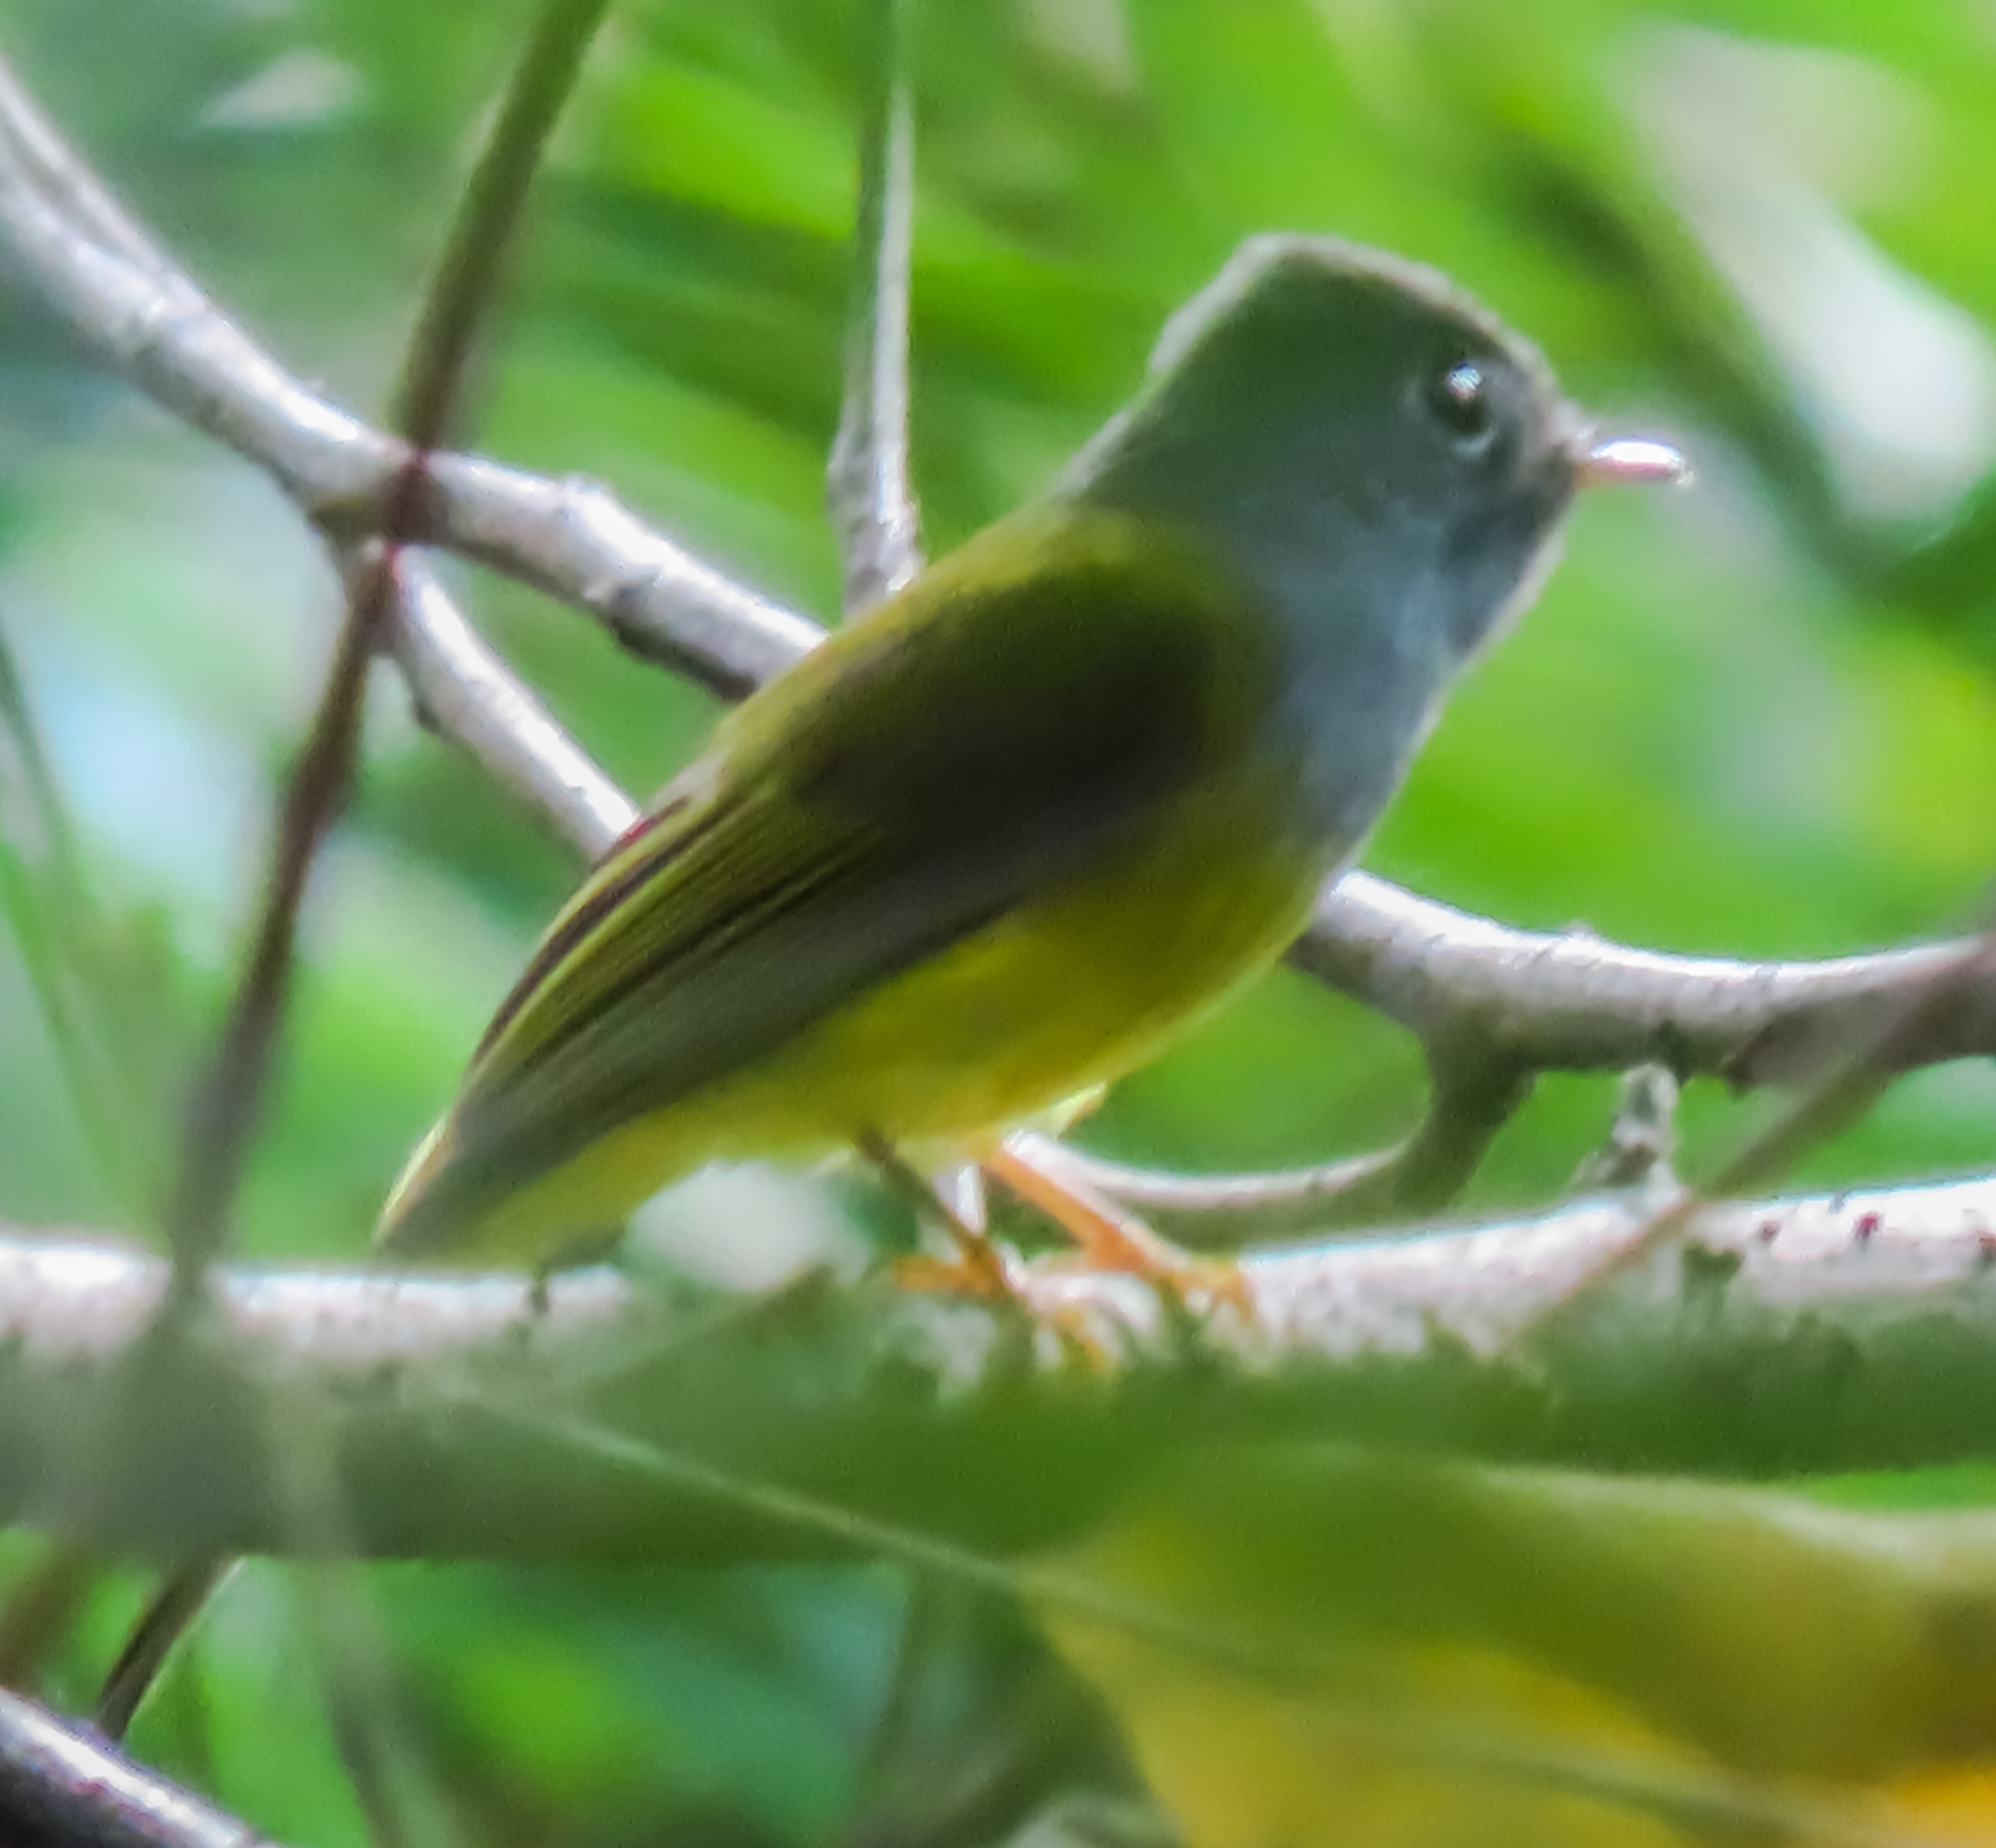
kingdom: Animalia
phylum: Chordata
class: Aves
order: Passeriformes
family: Stenostiridae
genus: Culicicapa
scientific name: Culicicapa ceylonensis
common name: Grey-headed canary-flycatcher
